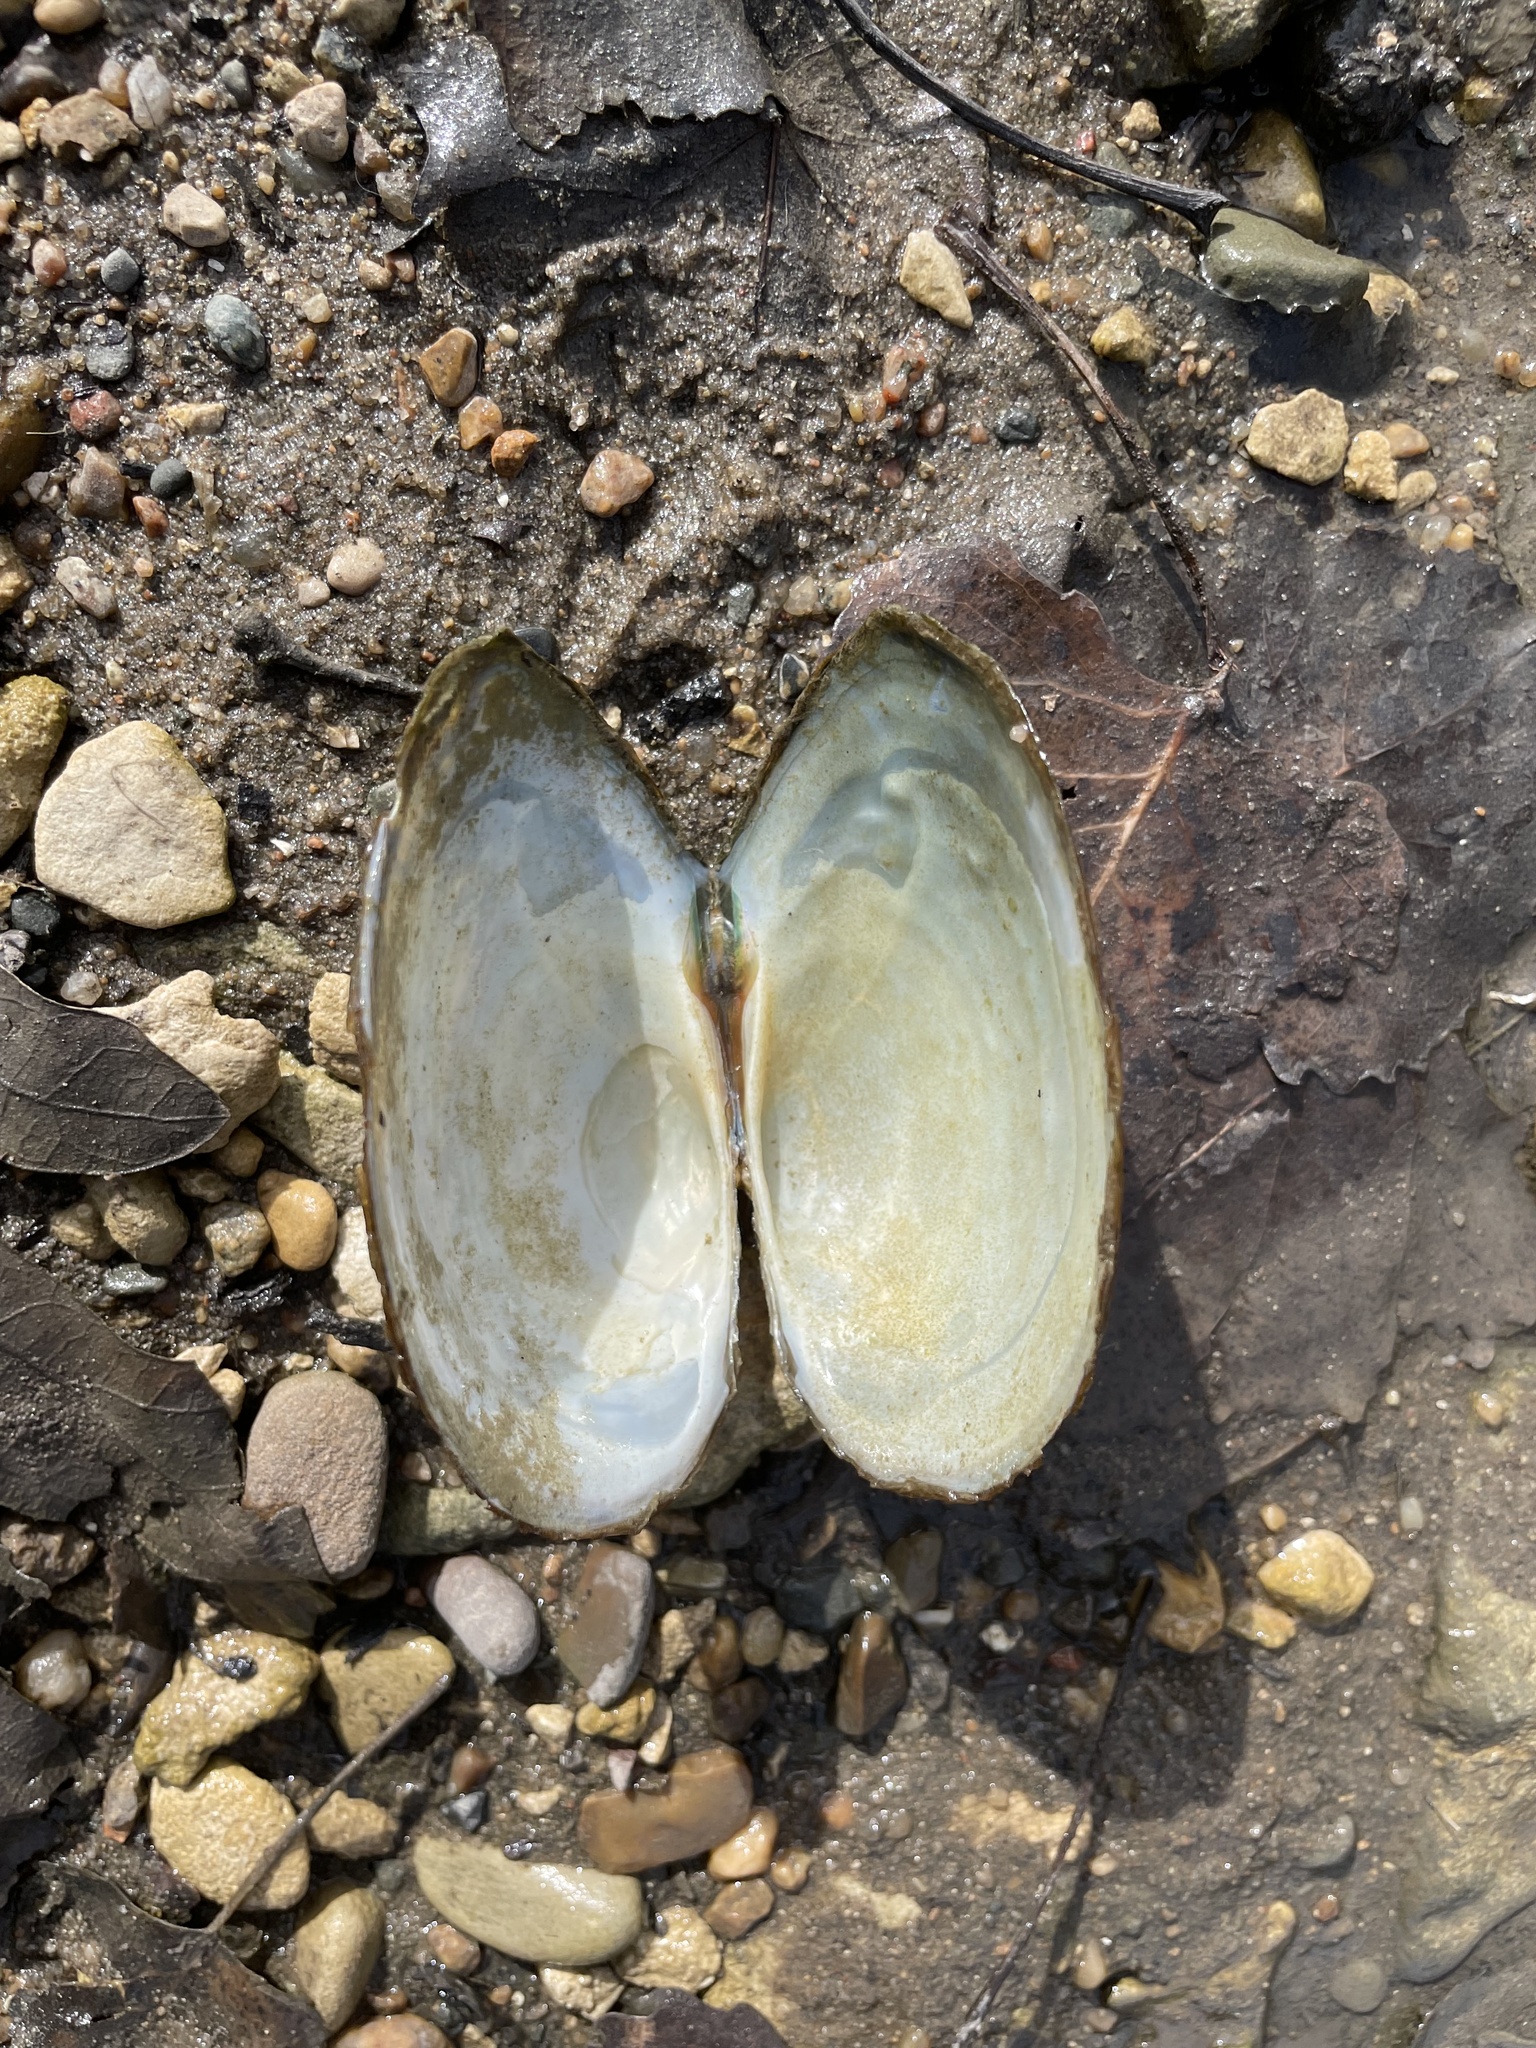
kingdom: Animalia
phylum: Mollusca
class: Bivalvia
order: Unionida
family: Unionidae
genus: Pyganodon
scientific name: Pyganodon grandis
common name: Giant floater
